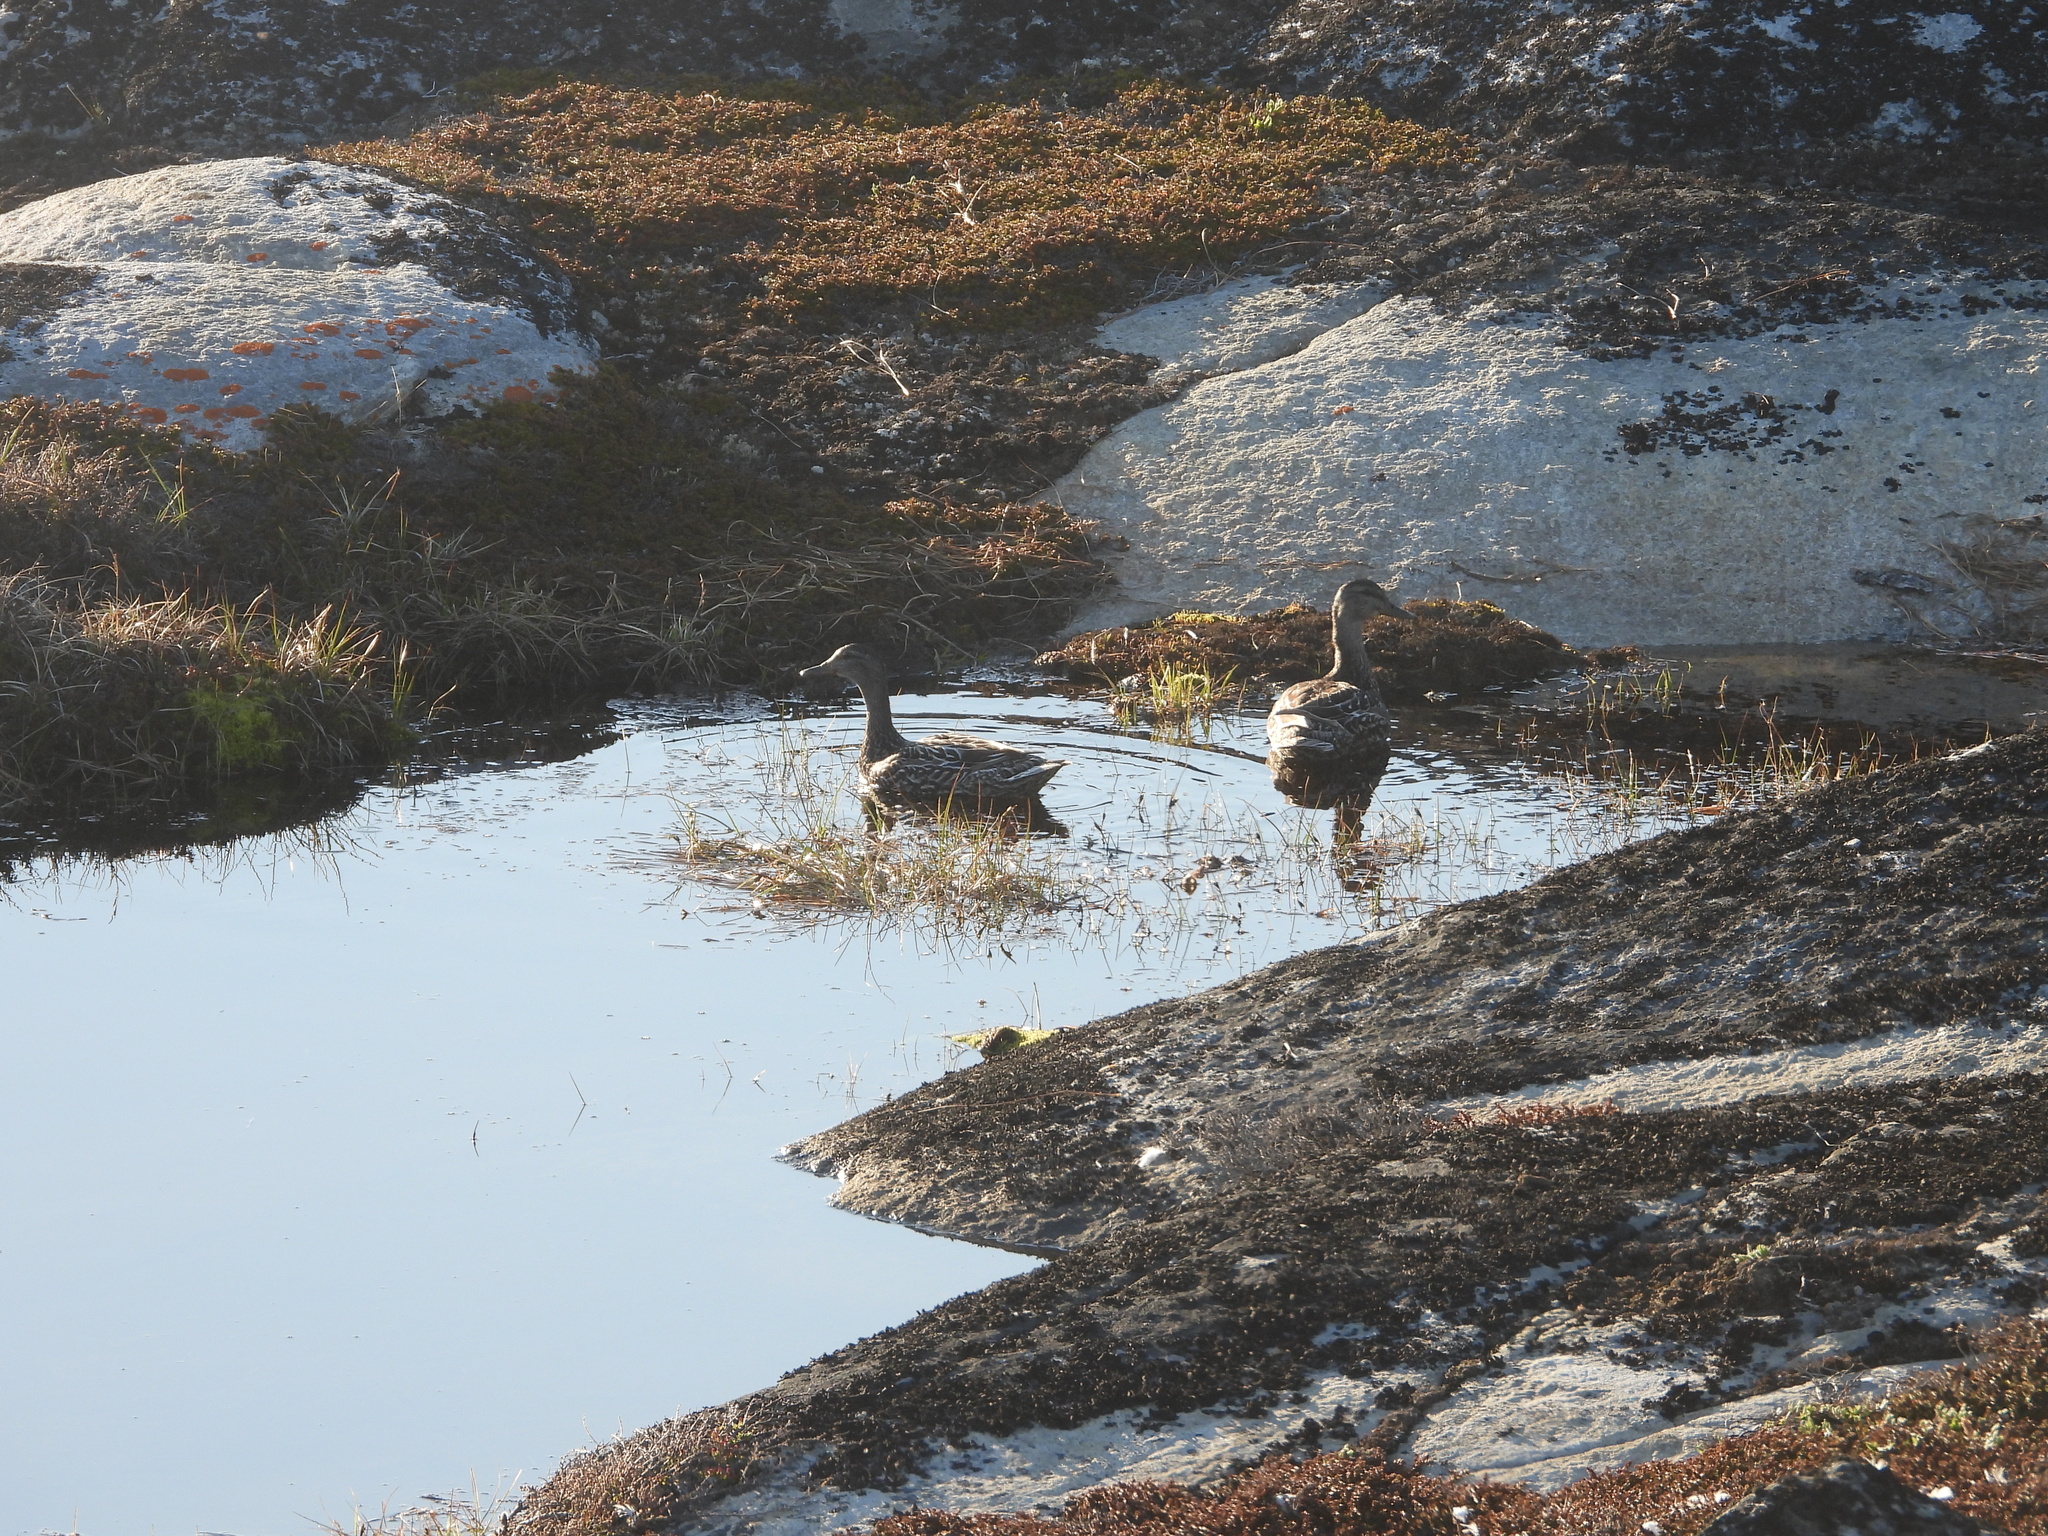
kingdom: Animalia
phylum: Chordata
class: Aves
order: Anseriformes
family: Anatidae
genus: Anas
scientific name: Anas platyrhynchos
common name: Mallard
